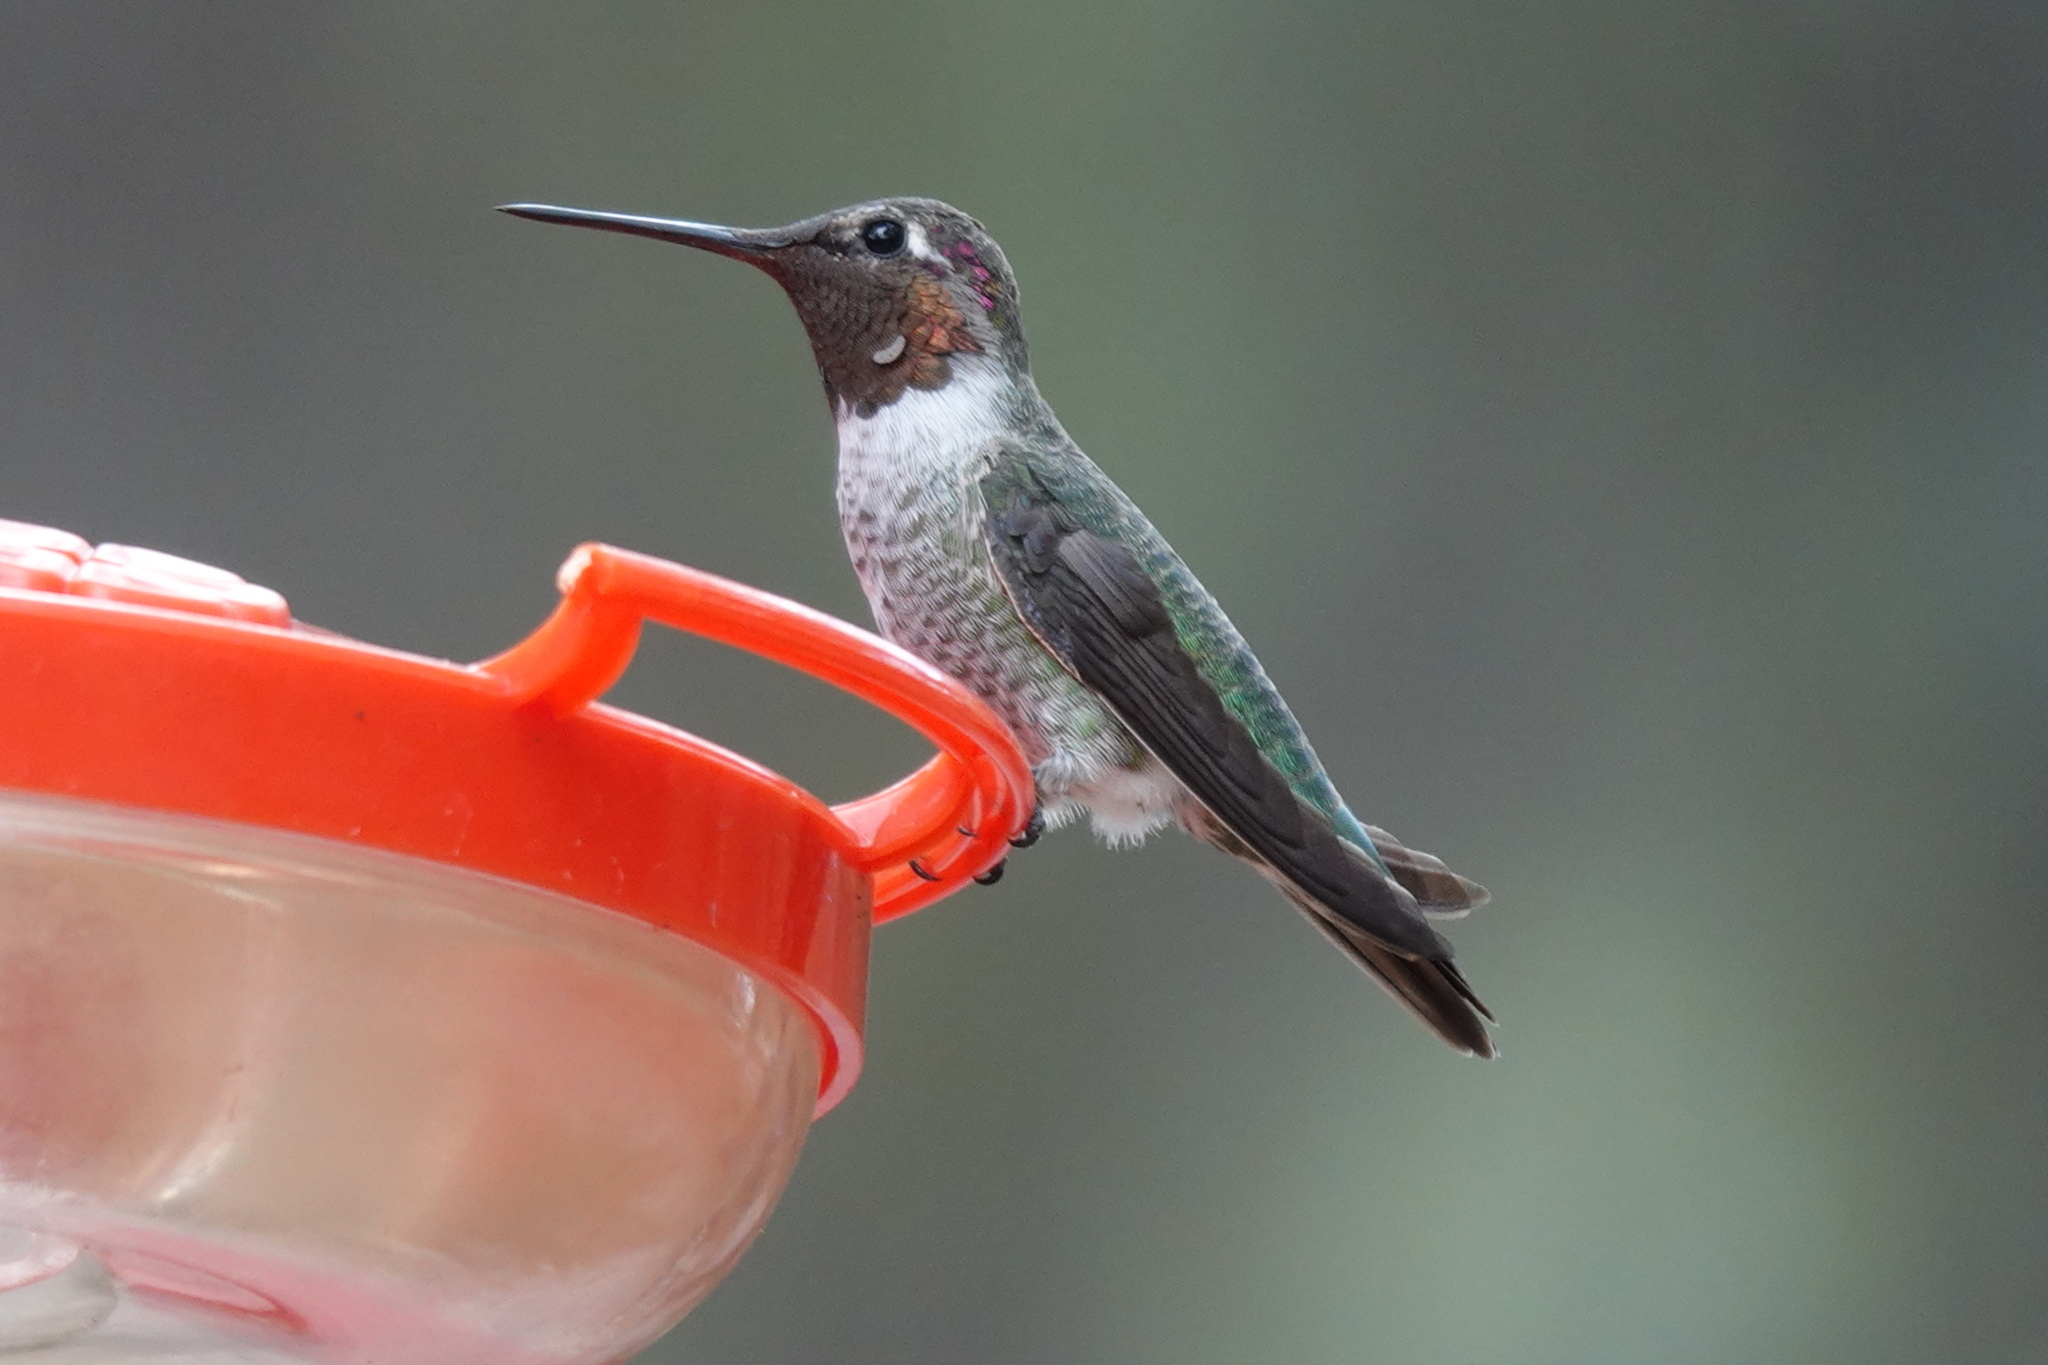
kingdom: Animalia
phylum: Chordata
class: Aves
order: Apodiformes
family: Trochilidae
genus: Calypte
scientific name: Calypte anna
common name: Anna's hummingbird
